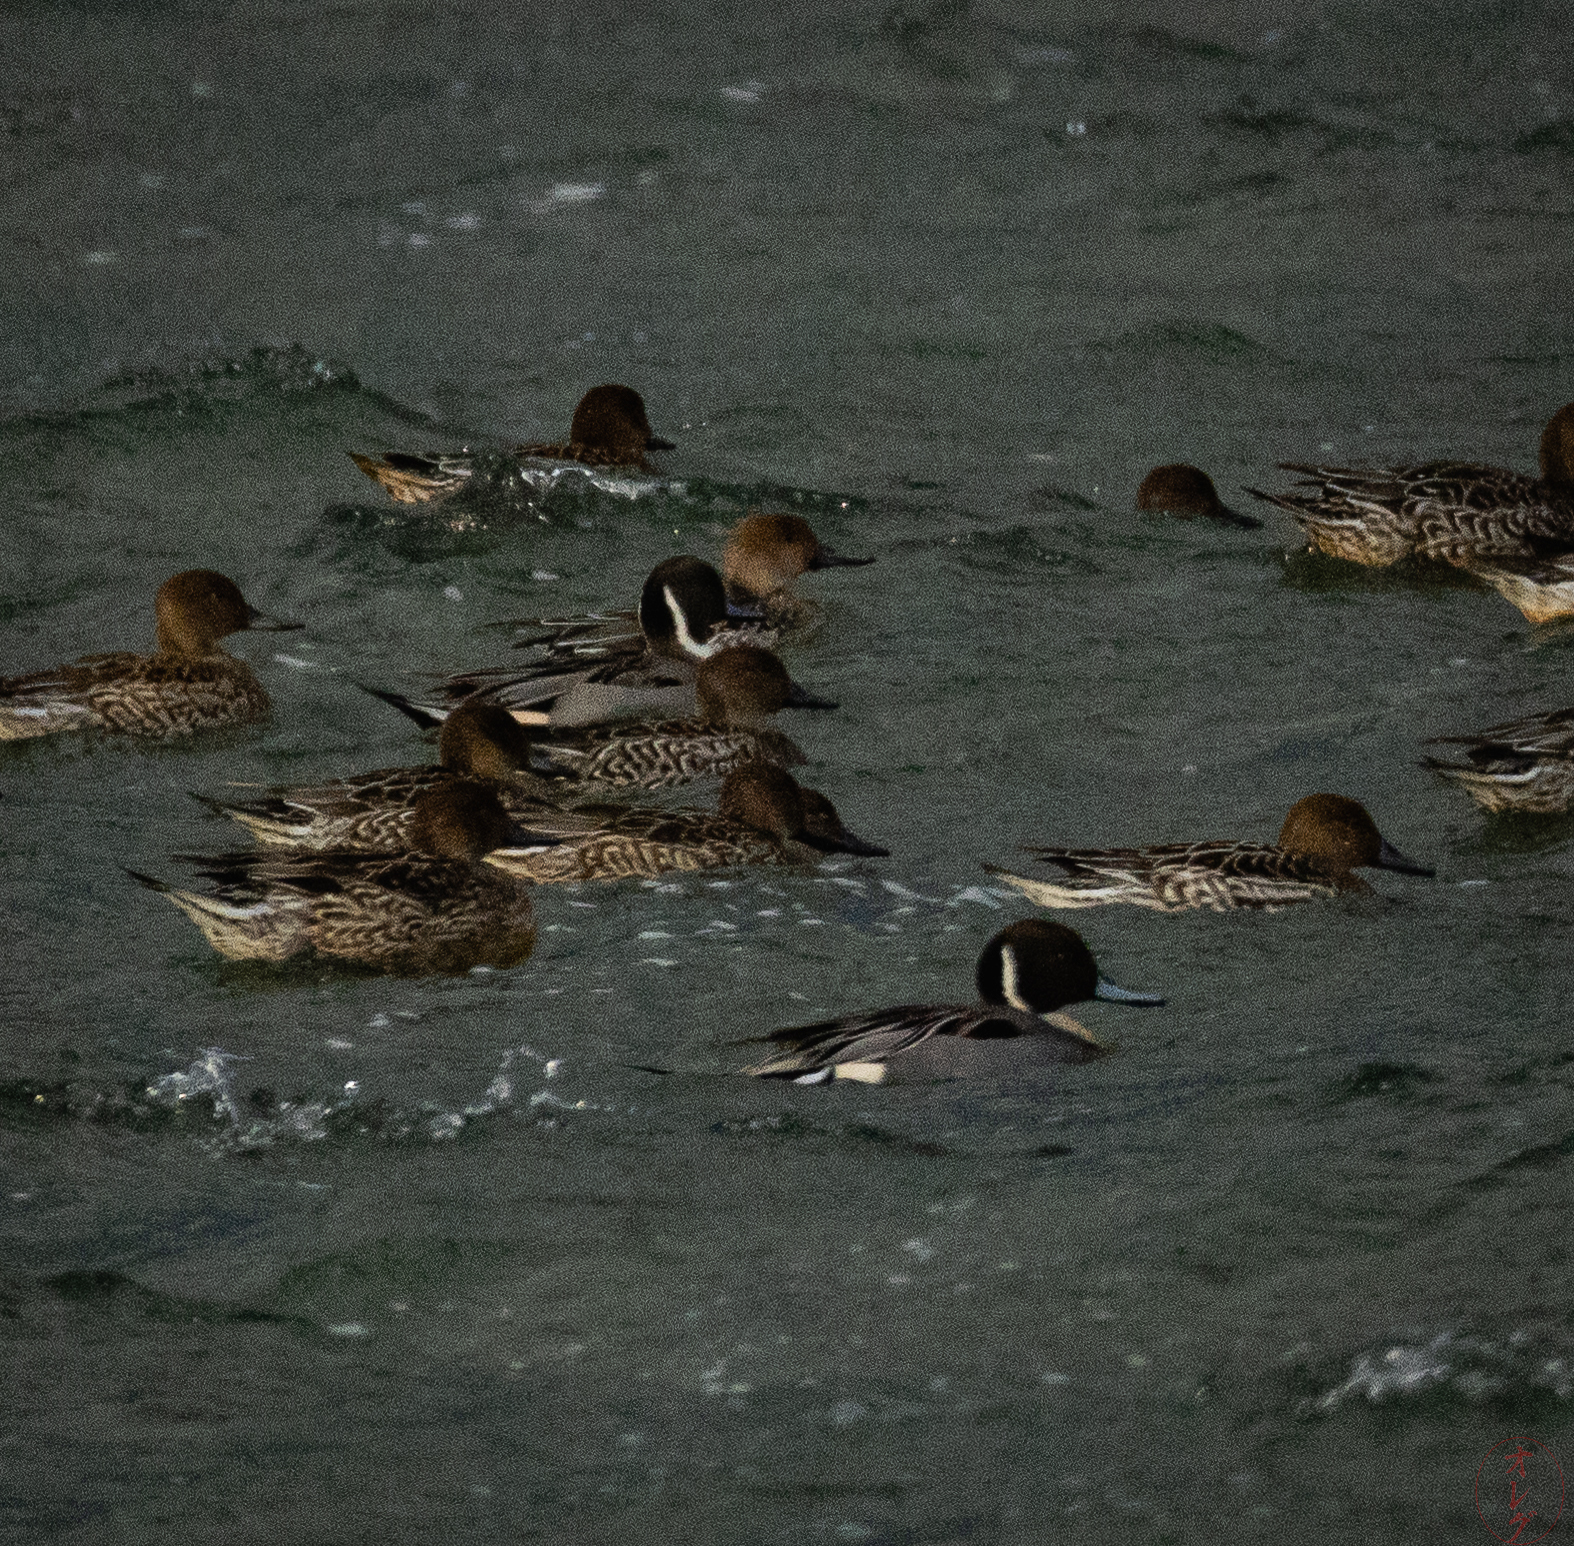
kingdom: Animalia
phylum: Chordata
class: Aves
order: Anseriformes
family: Anatidae
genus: Anas
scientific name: Anas acuta
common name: Northern pintail
